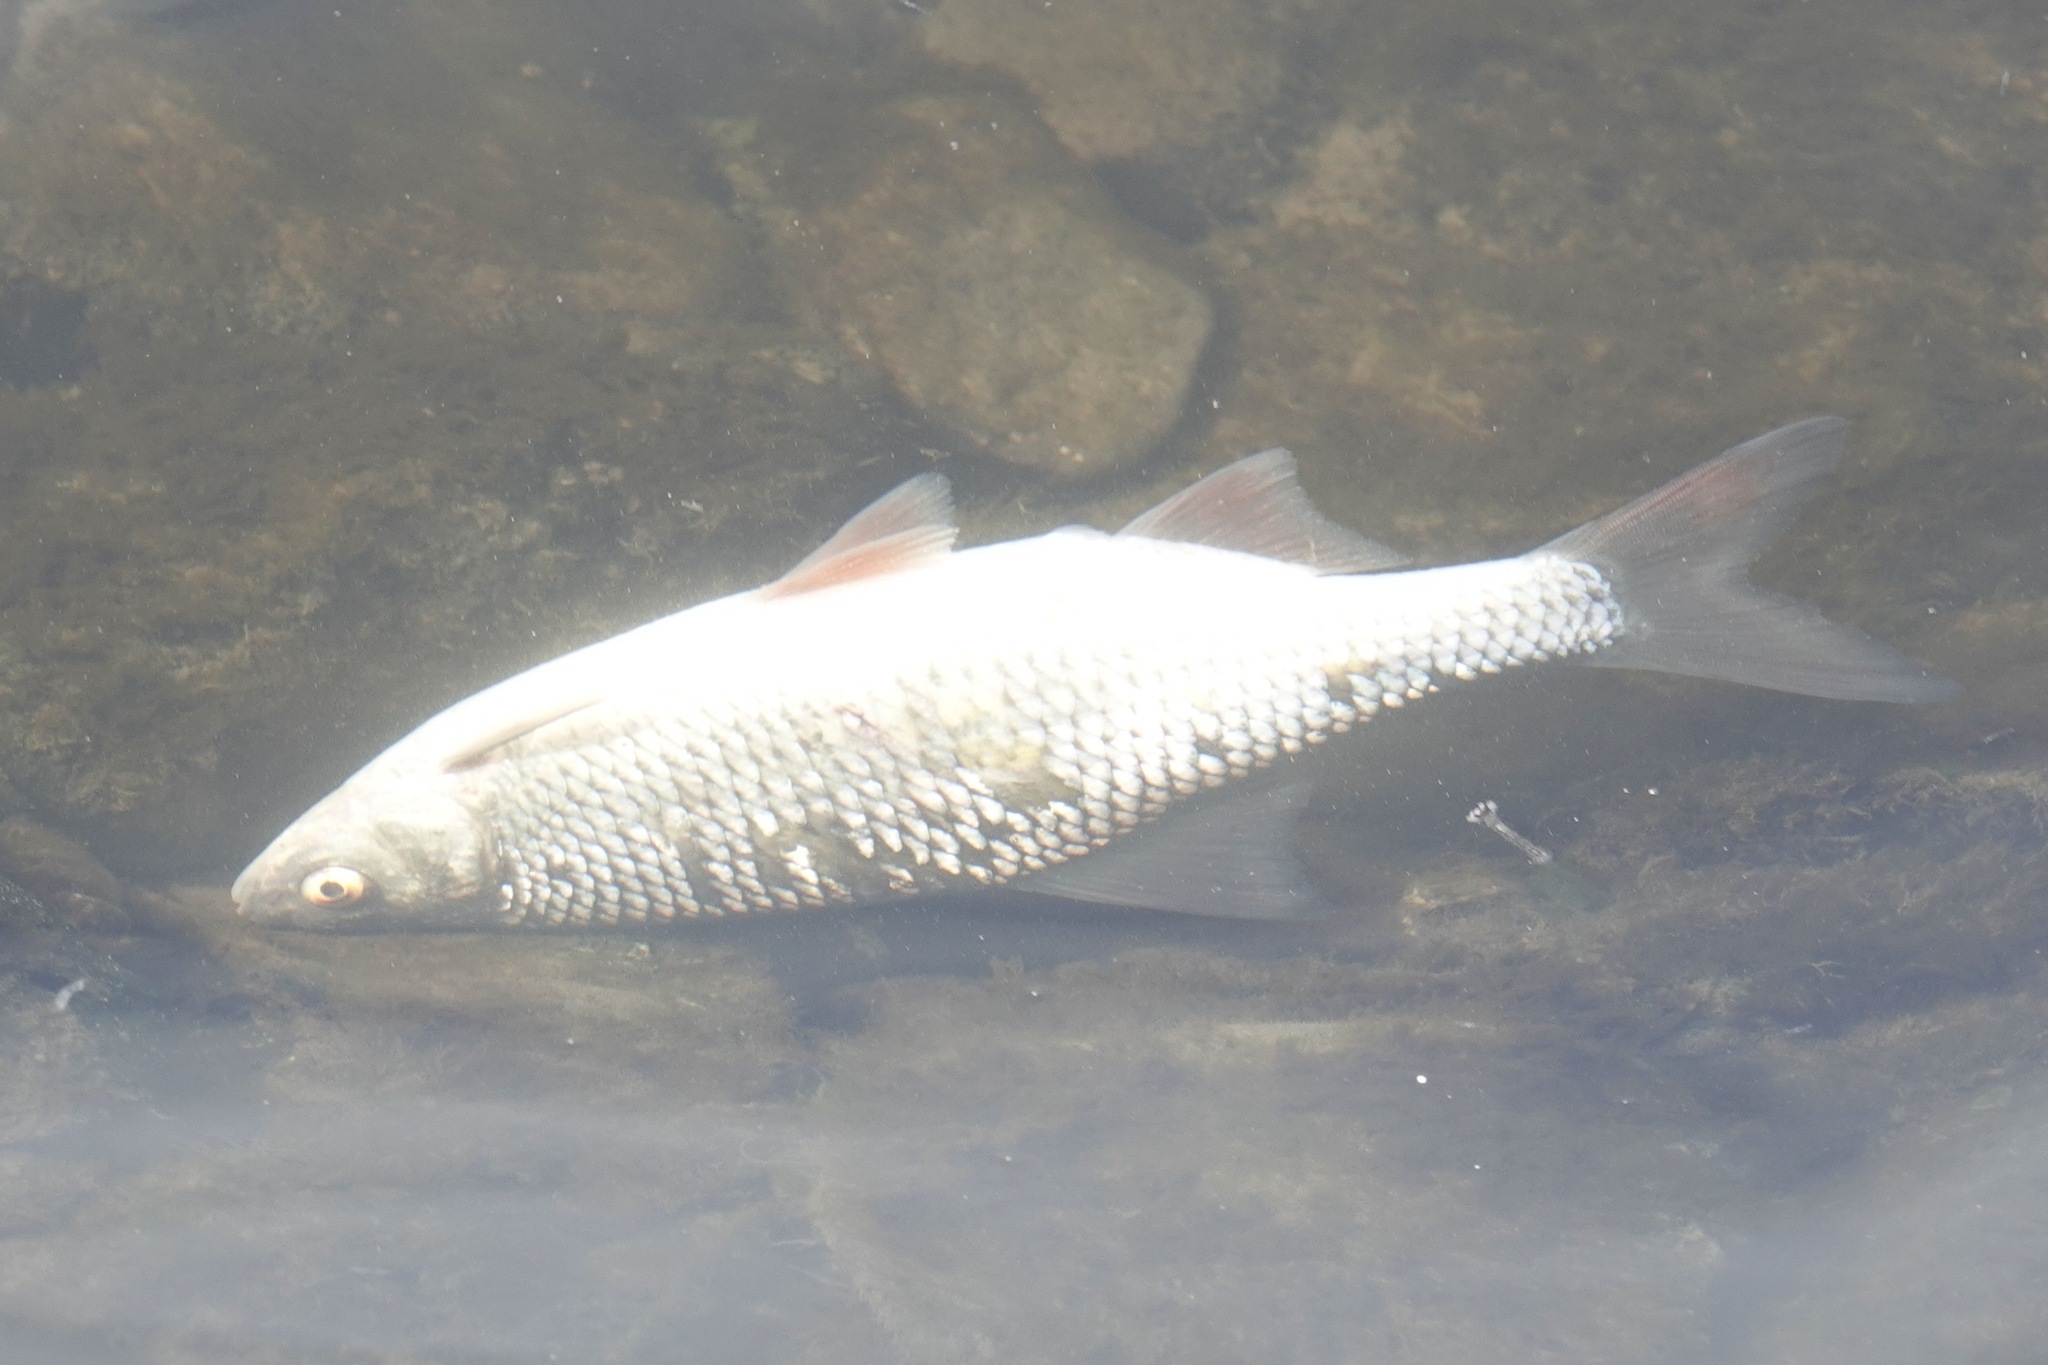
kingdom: Animalia
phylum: Chordata
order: Cypriniformes
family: Cyprinidae
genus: Rutilus
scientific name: Rutilus rutilus
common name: Roach
